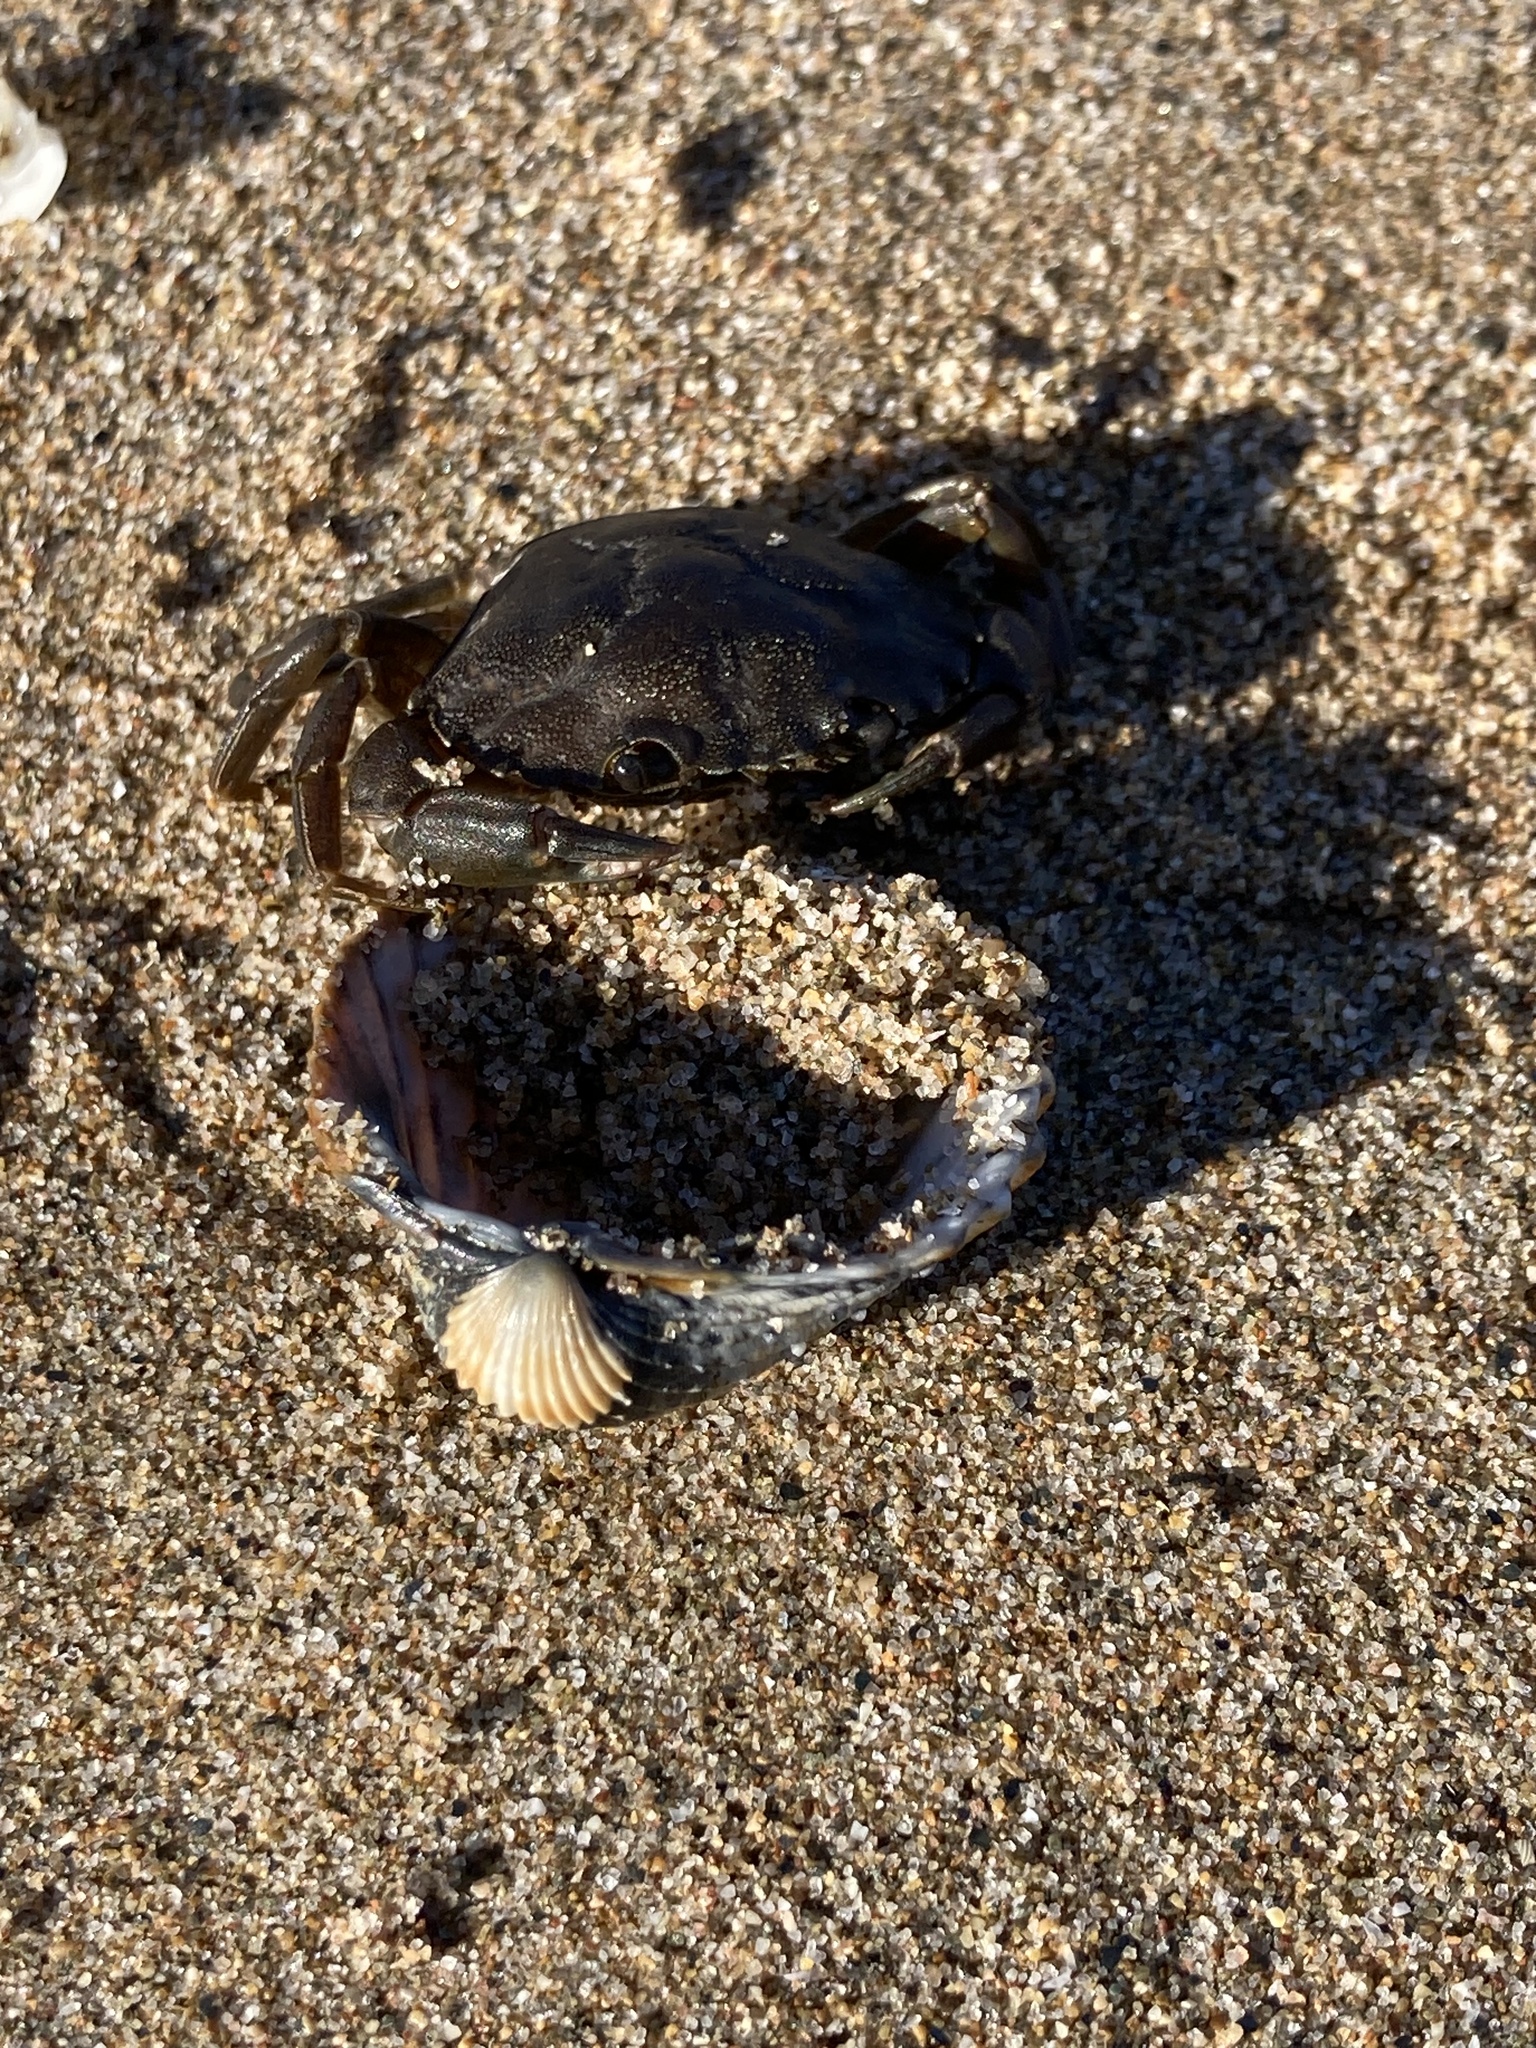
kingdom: Animalia
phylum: Arthropoda
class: Malacostraca
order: Decapoda
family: Carcinidae
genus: Carcinus
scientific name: Carcinus aestuarii
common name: Mediterranean green crab
